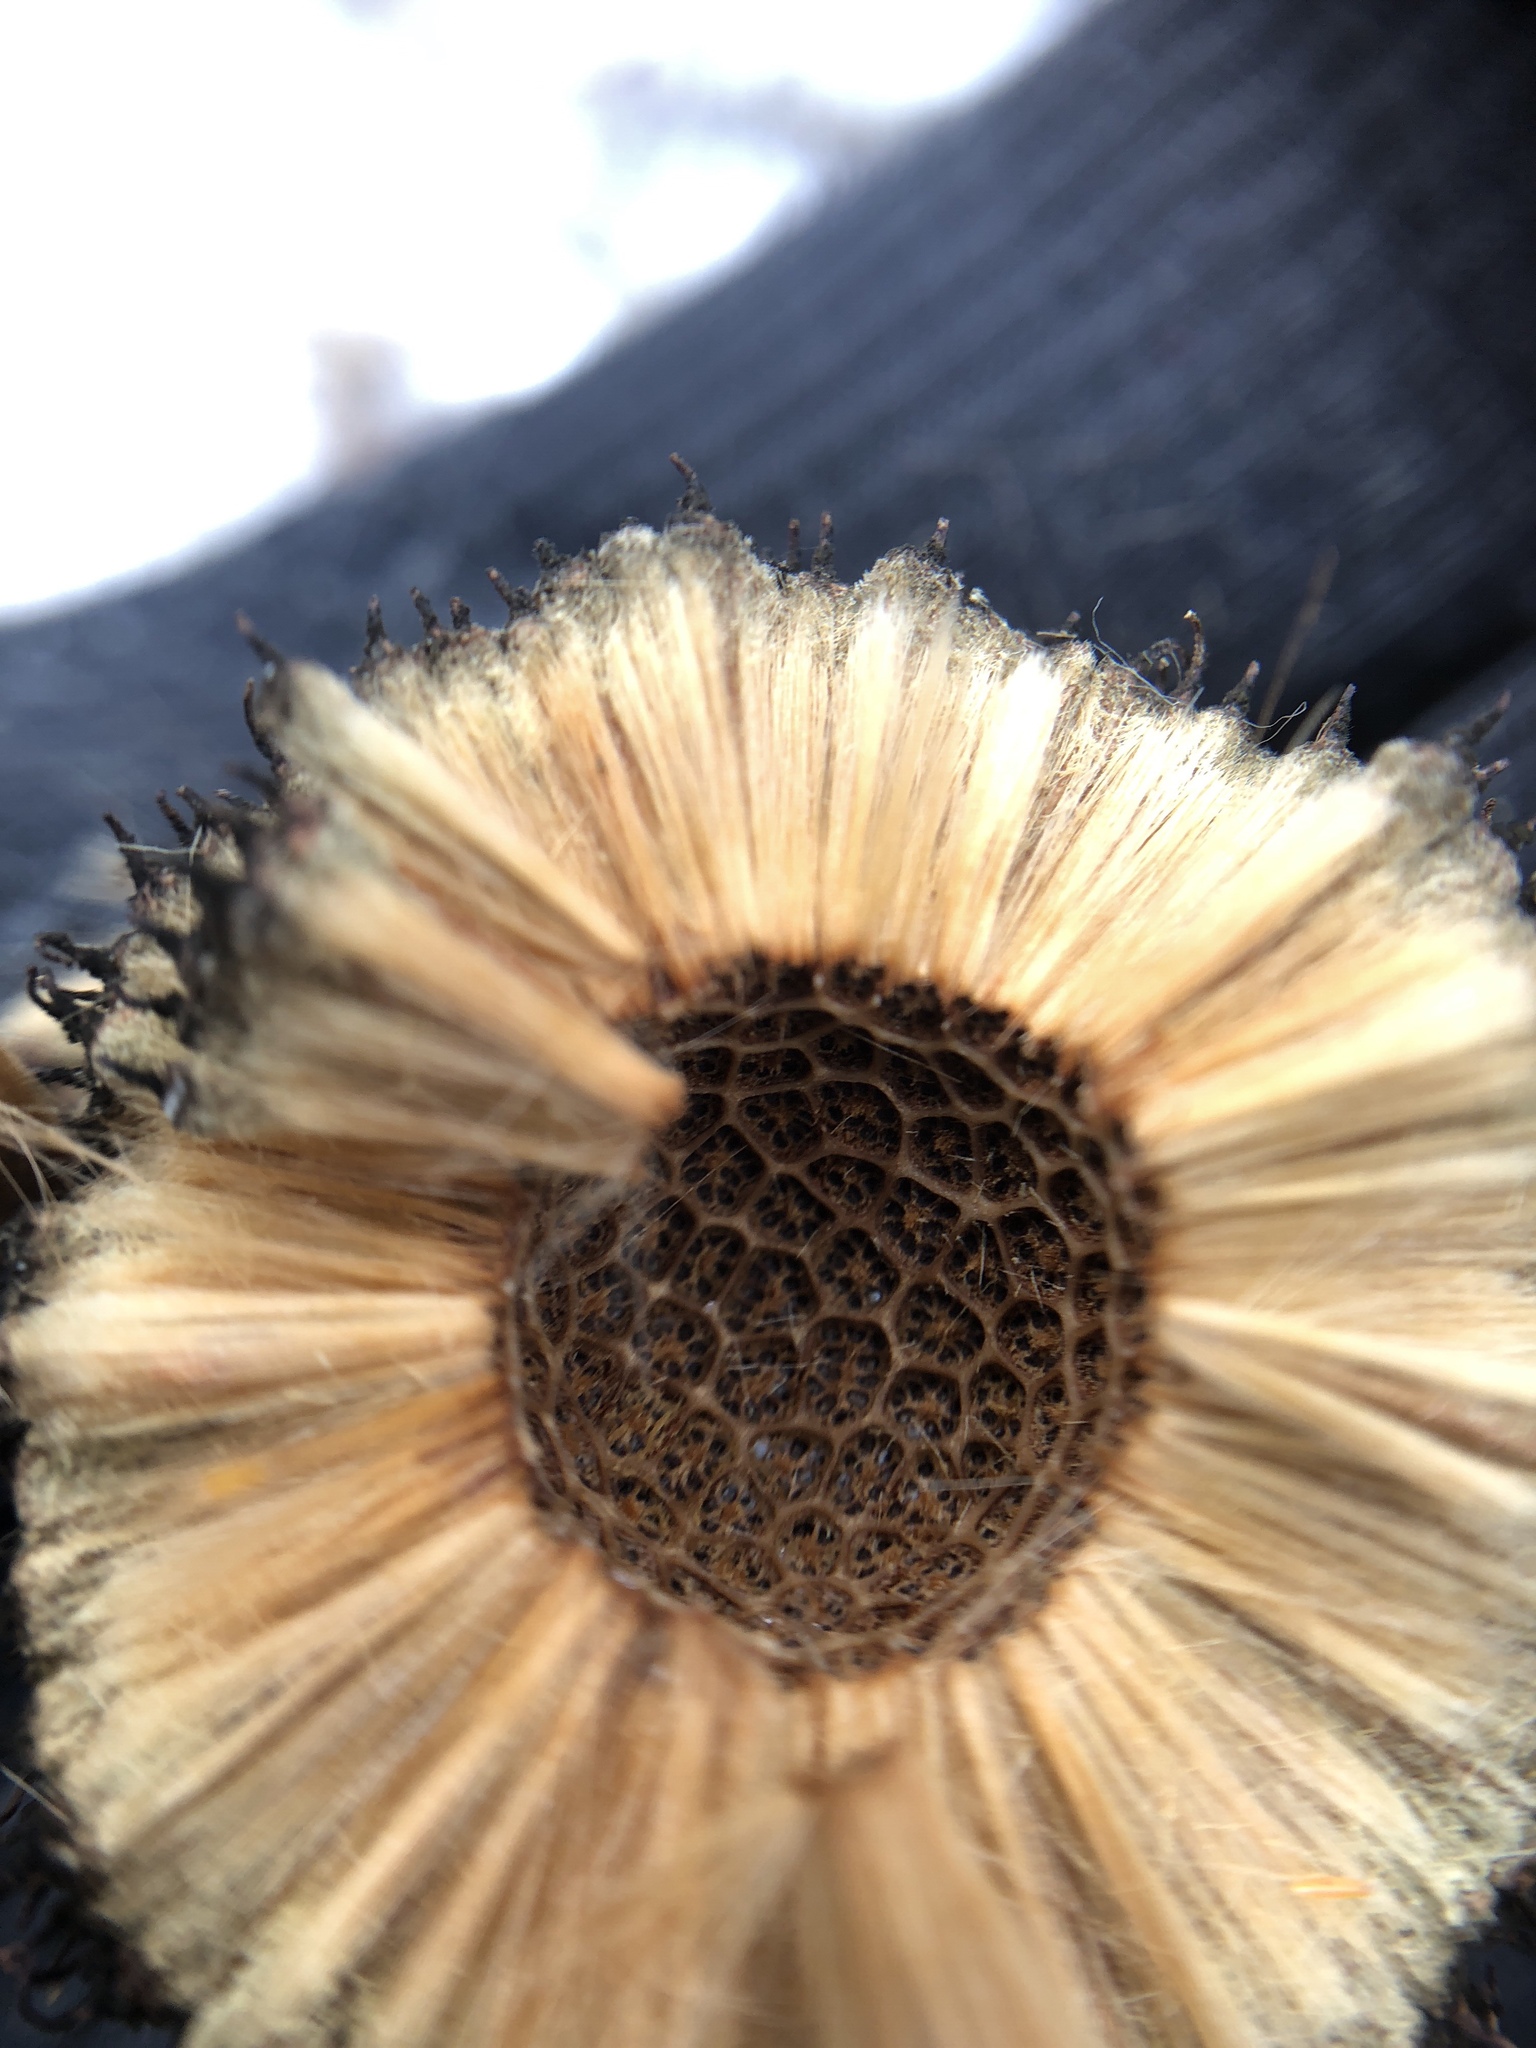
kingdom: Plantae
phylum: Tracheophyta
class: Magnoliopsida
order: Proteales
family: Platanaceae
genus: Platanus
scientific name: Platanus occidentalis
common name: American sycamore
